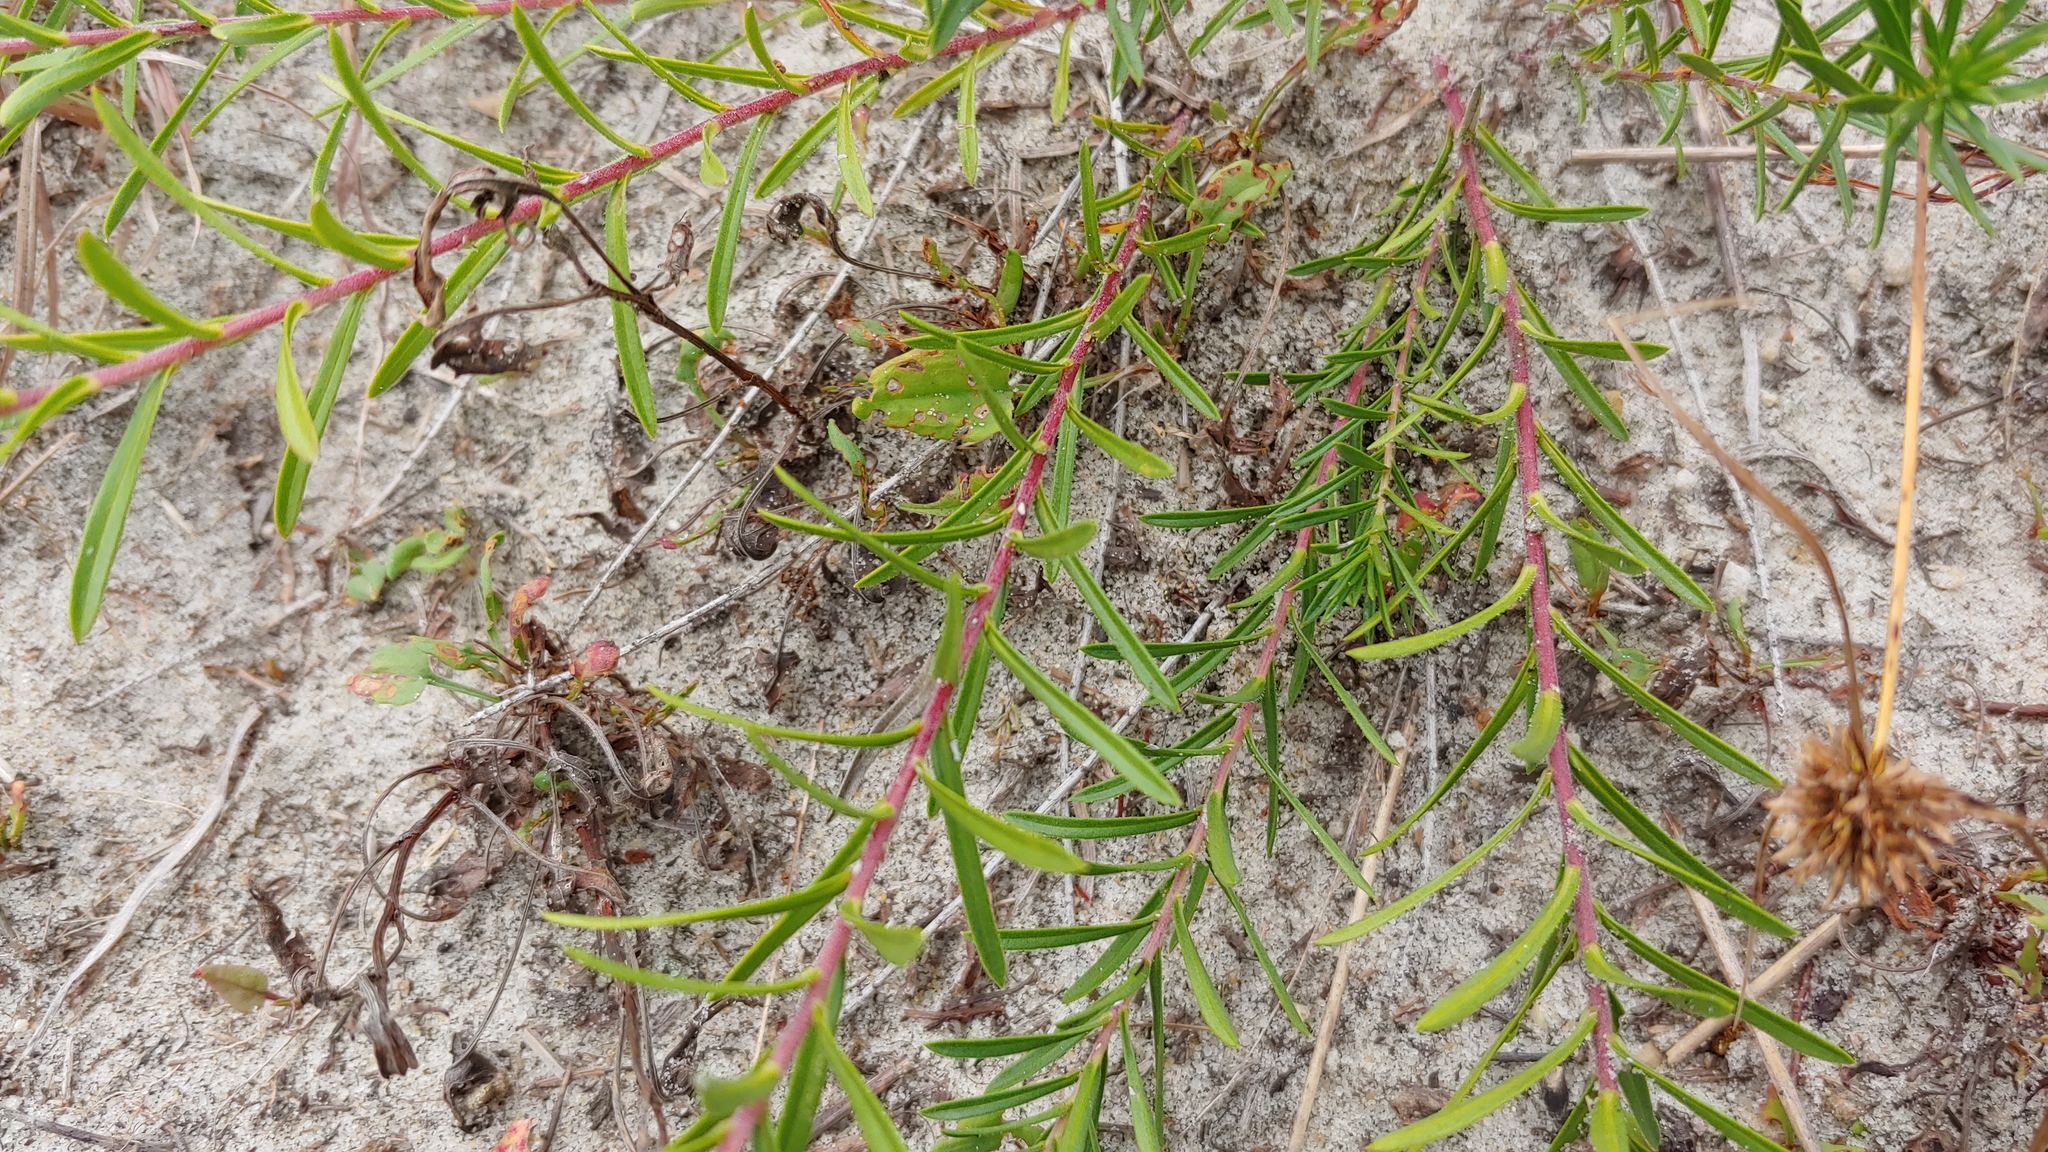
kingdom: Plantae
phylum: Tracheophyta
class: Magnoliopsida
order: Asterales
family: Asteraceae
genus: Ionactis
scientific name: Ionactis linariifolia
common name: Flax-leaf aster
